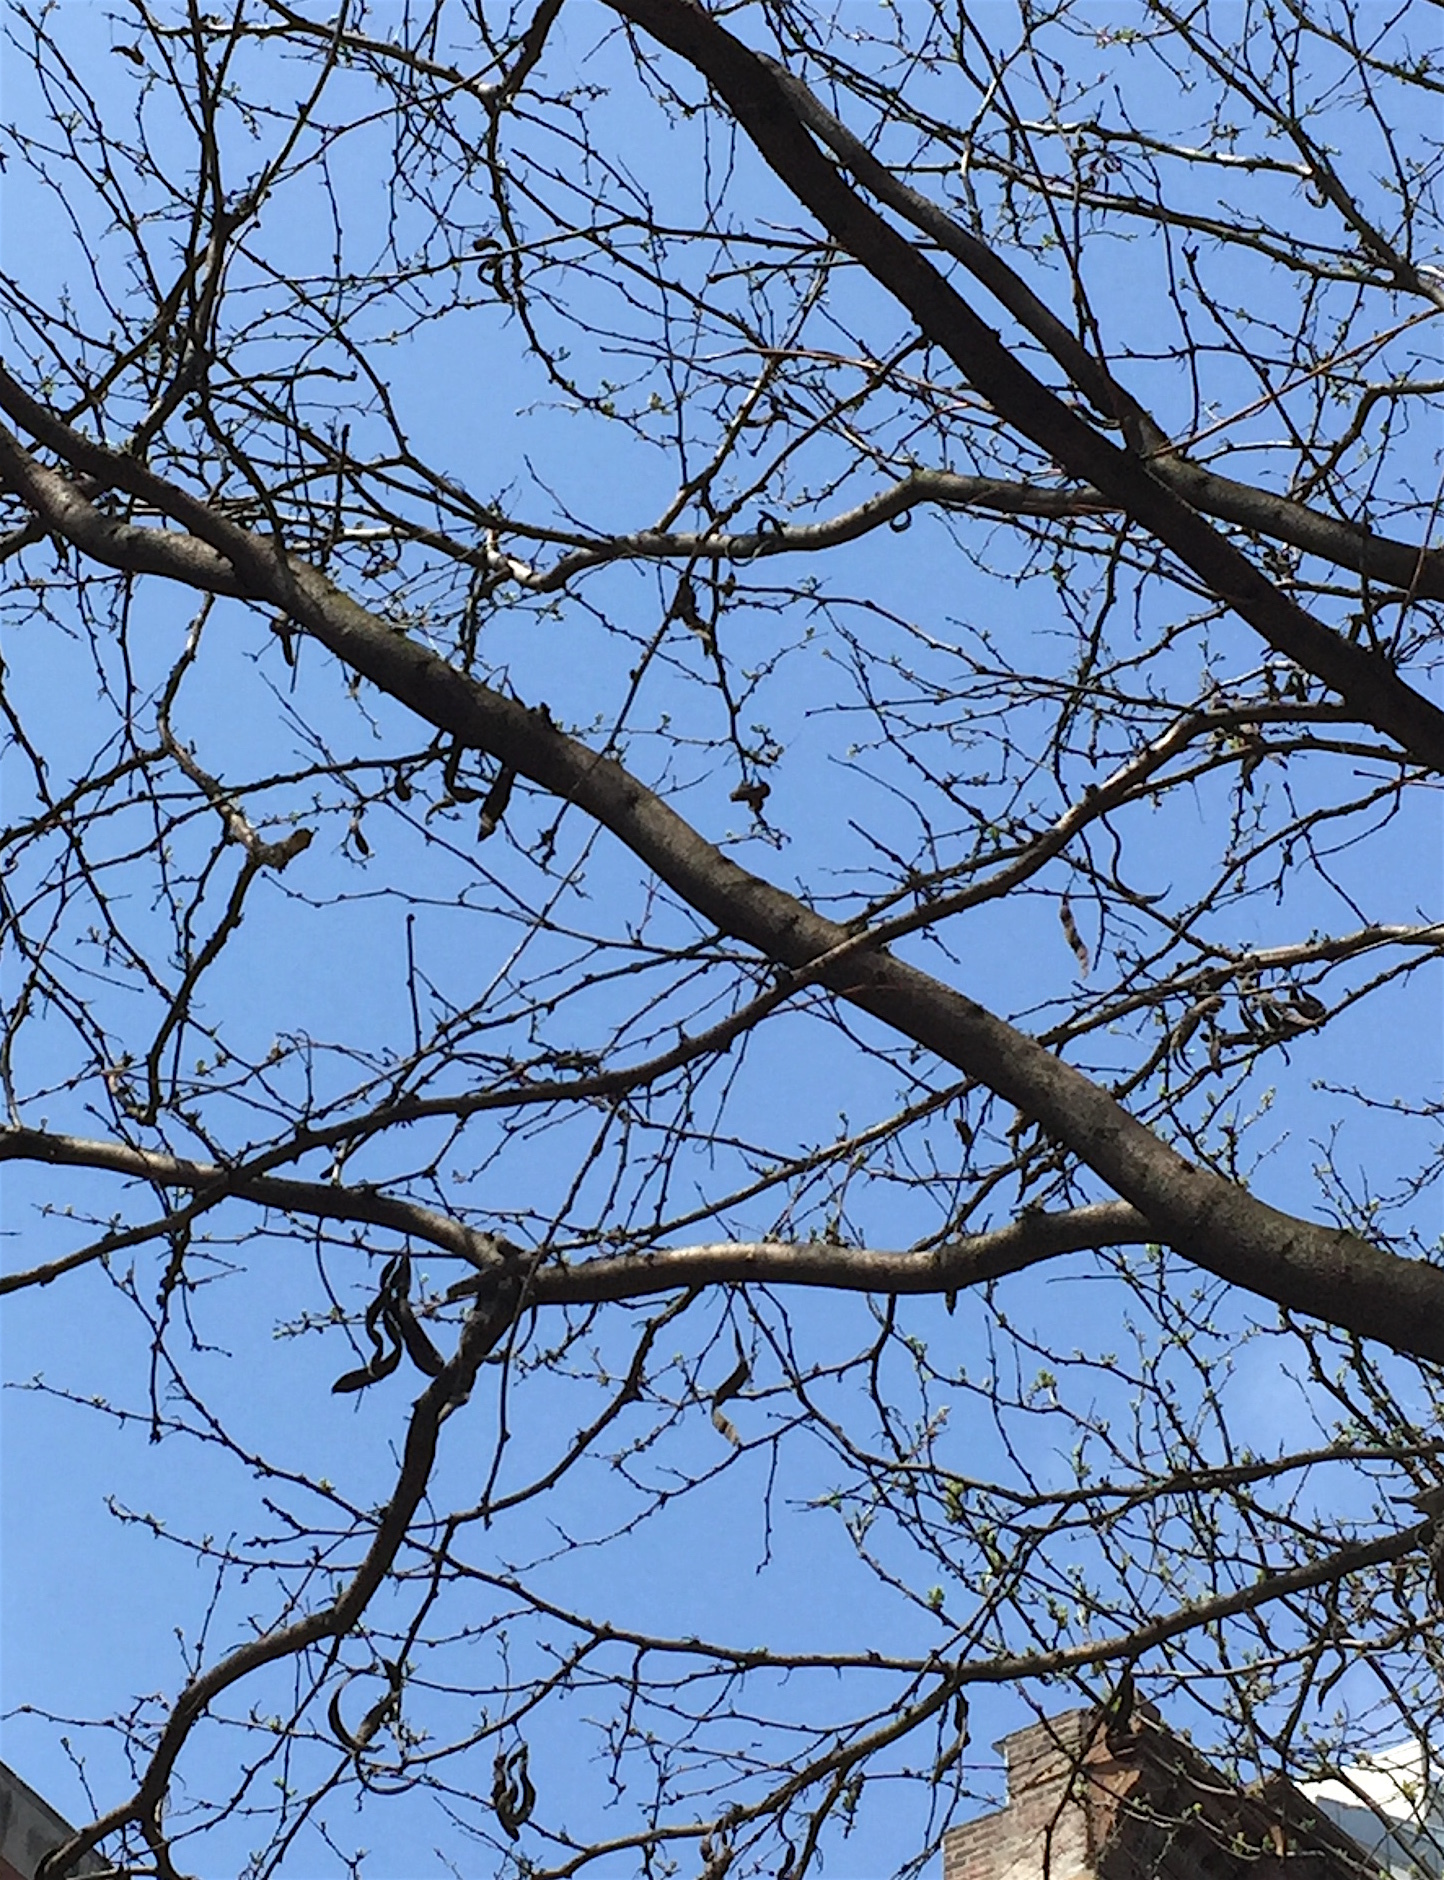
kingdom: Plantae
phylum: Tracheophyta
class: Magnoliopsida
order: Fabales
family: Fabaceae
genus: Gleditsia
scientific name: Gleditsia triacanthos
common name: Common honeylocust
